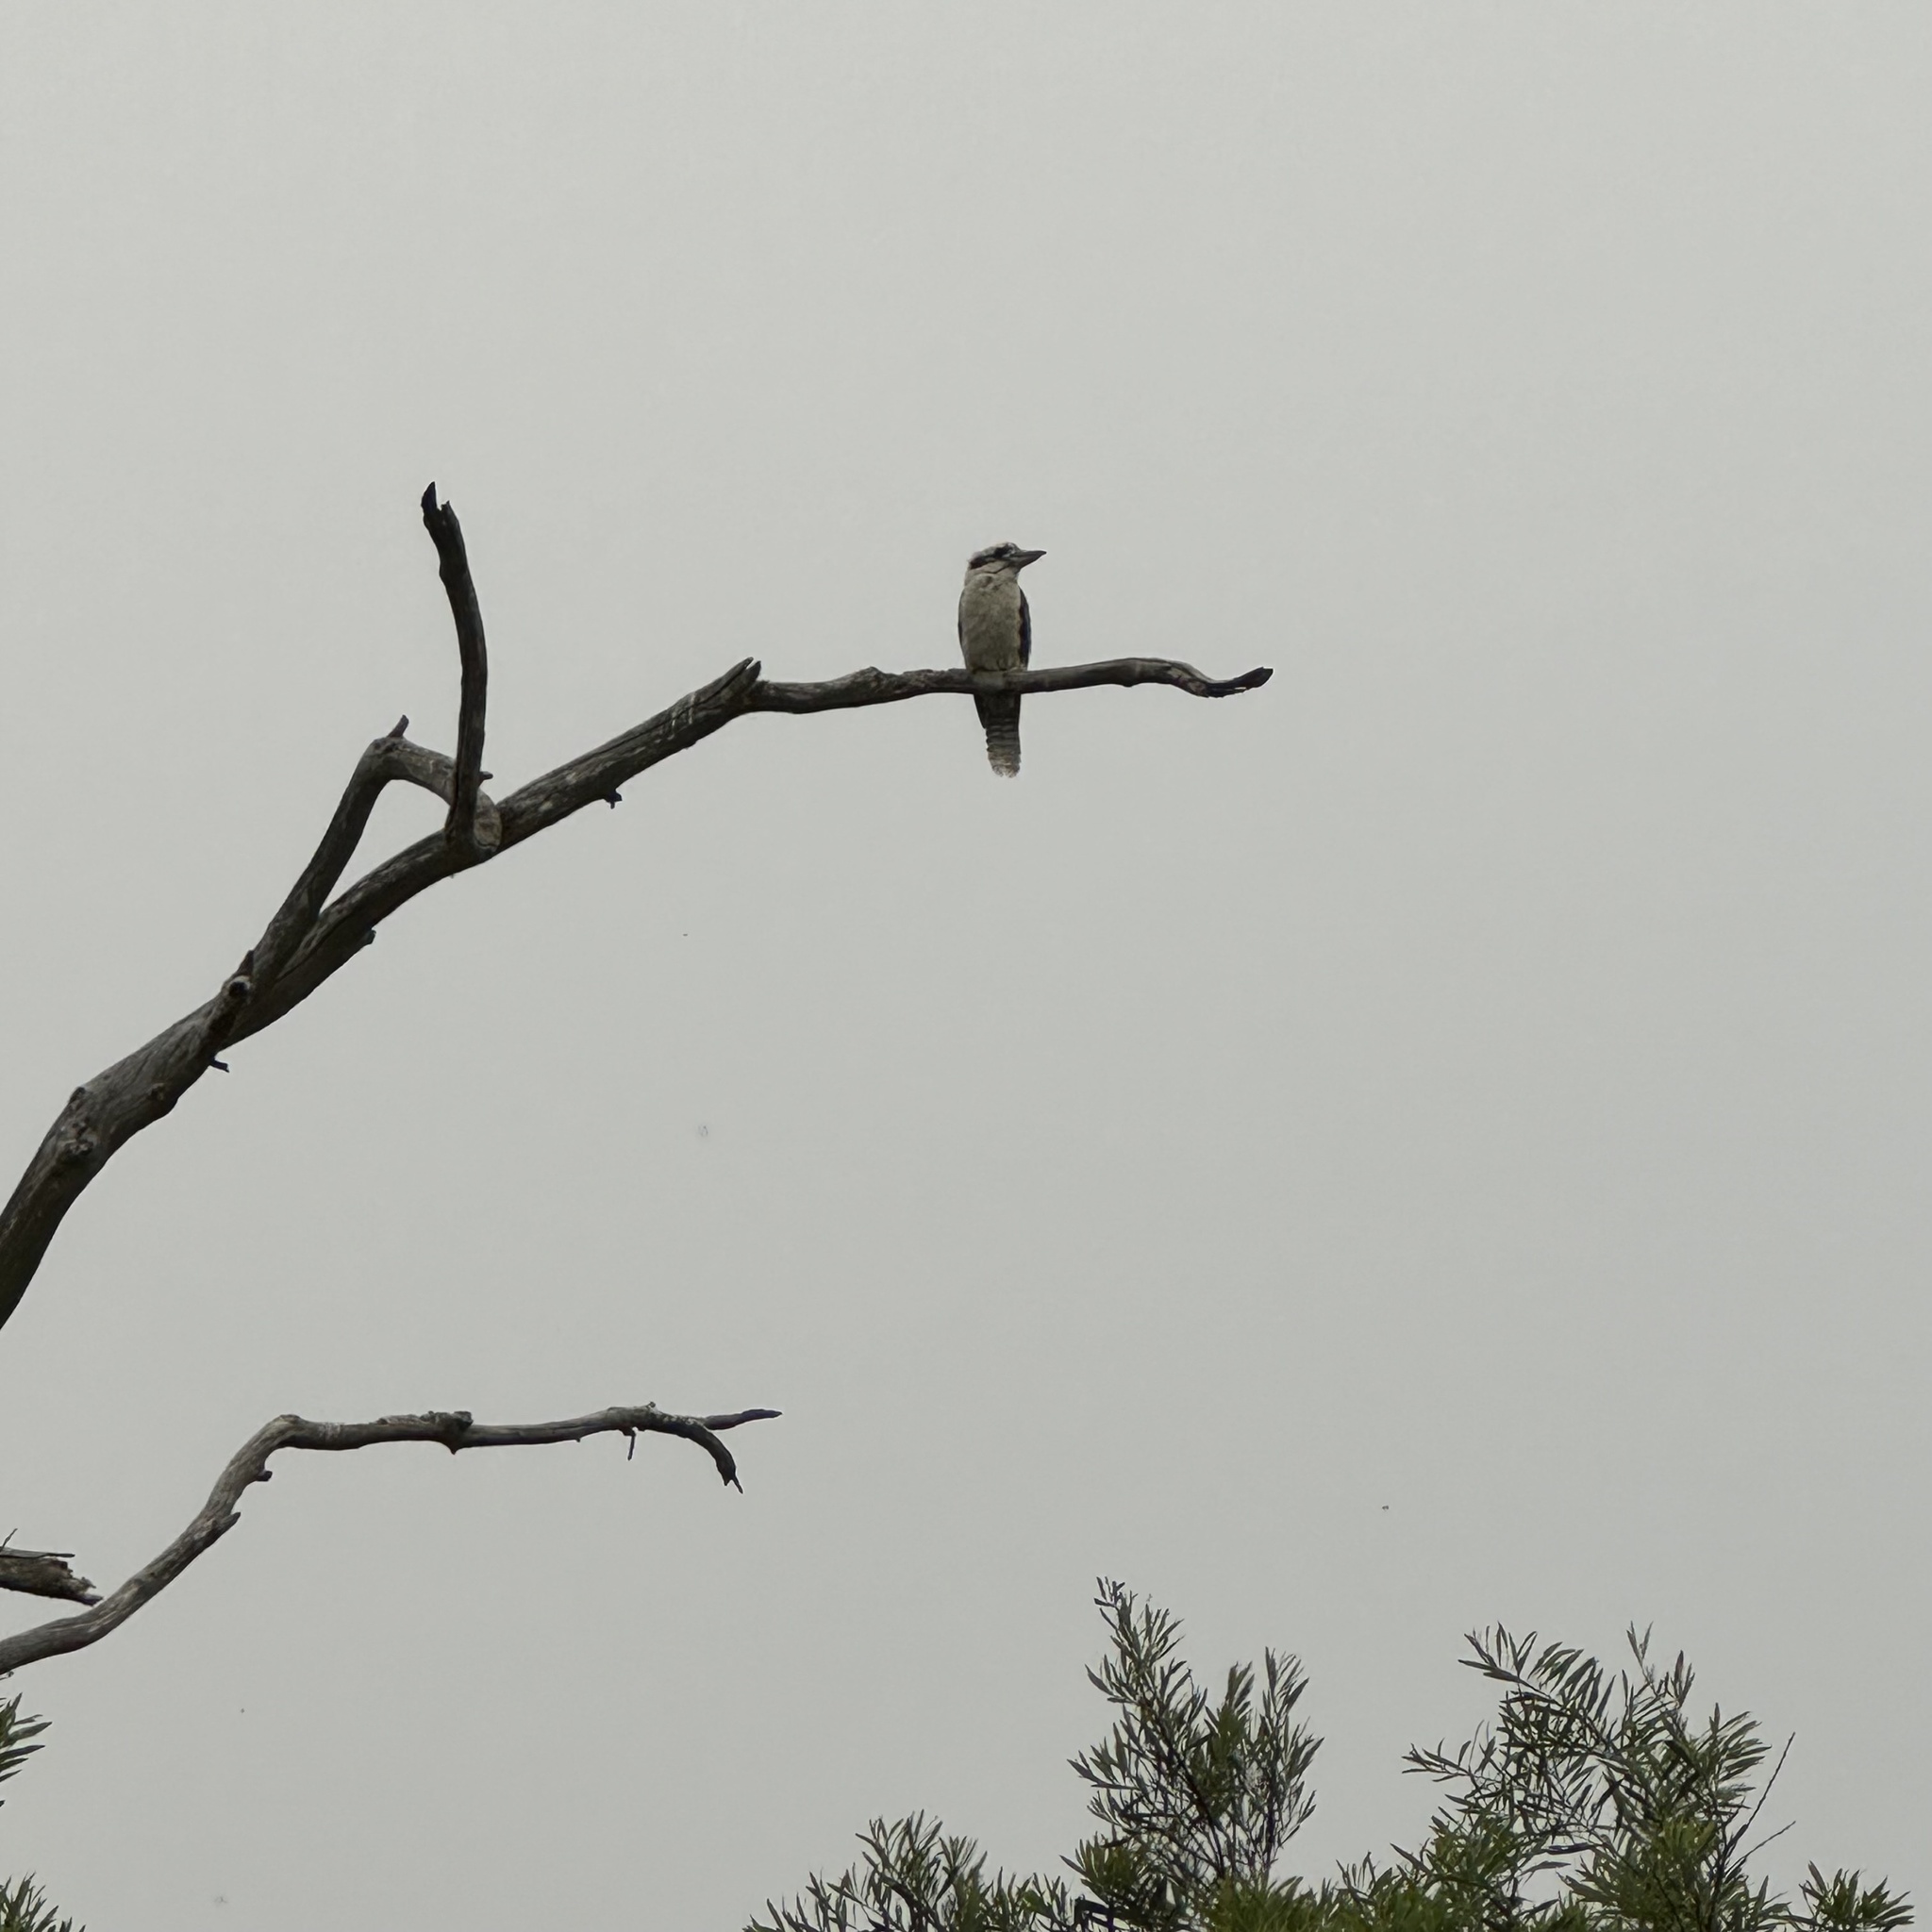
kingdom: Animalia
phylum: Chordata
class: Aves
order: Coraciiformes
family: Alcedinidae
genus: Dacelo
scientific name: Dacelo novaeguineae
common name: Laughing kookaburra
